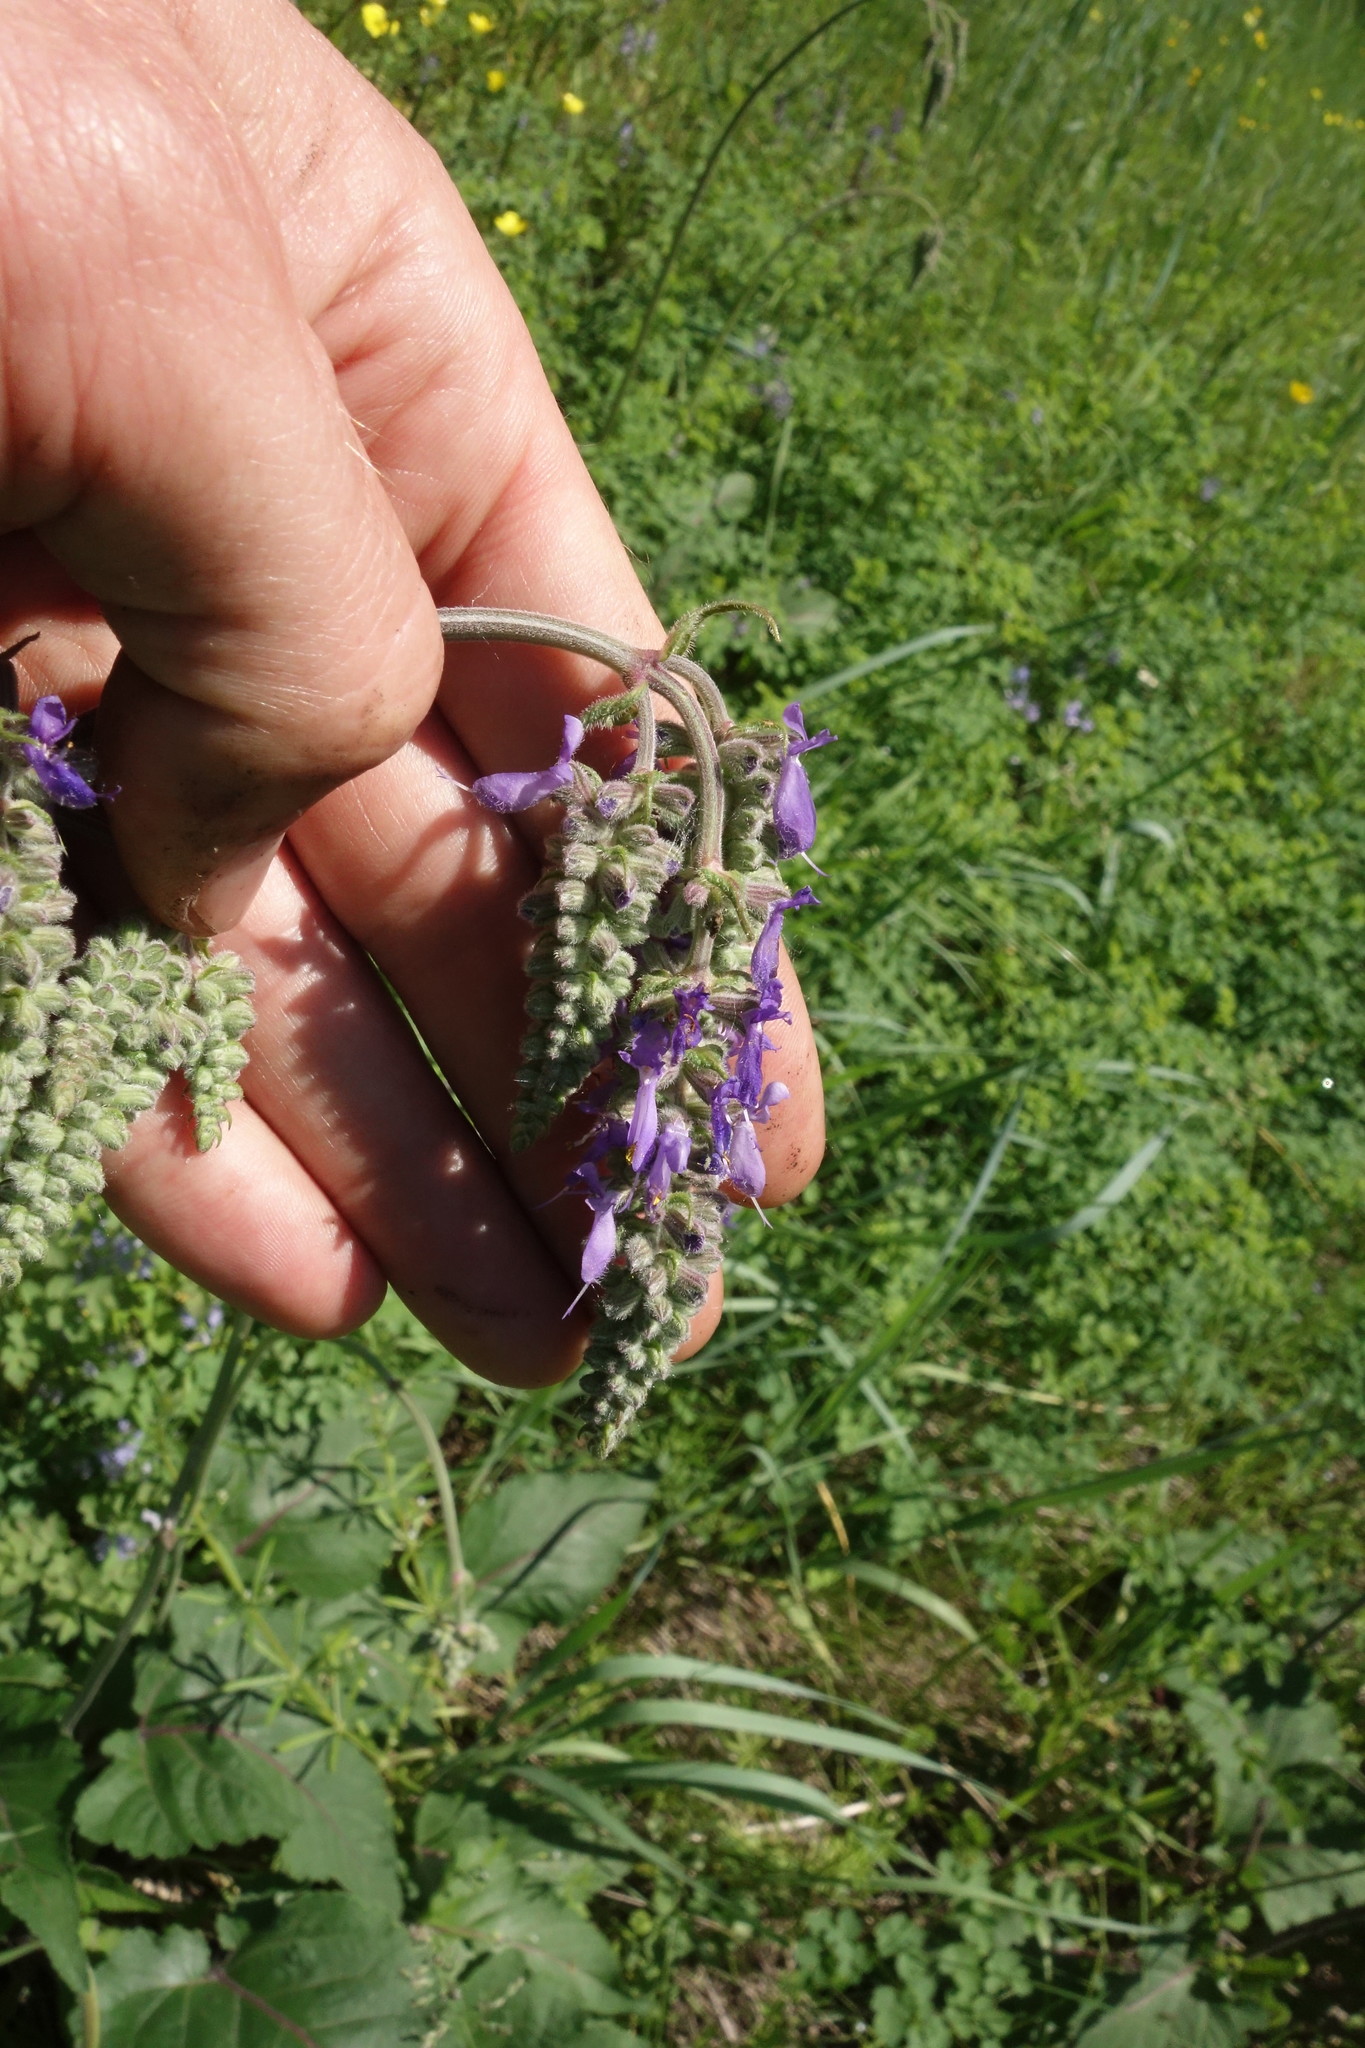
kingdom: Plantae
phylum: Tracheophyta
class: Magnoliopsida
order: Lamiales
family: Lamiaceae
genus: Salvia
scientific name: Salvia nutans
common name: Nodding sage
